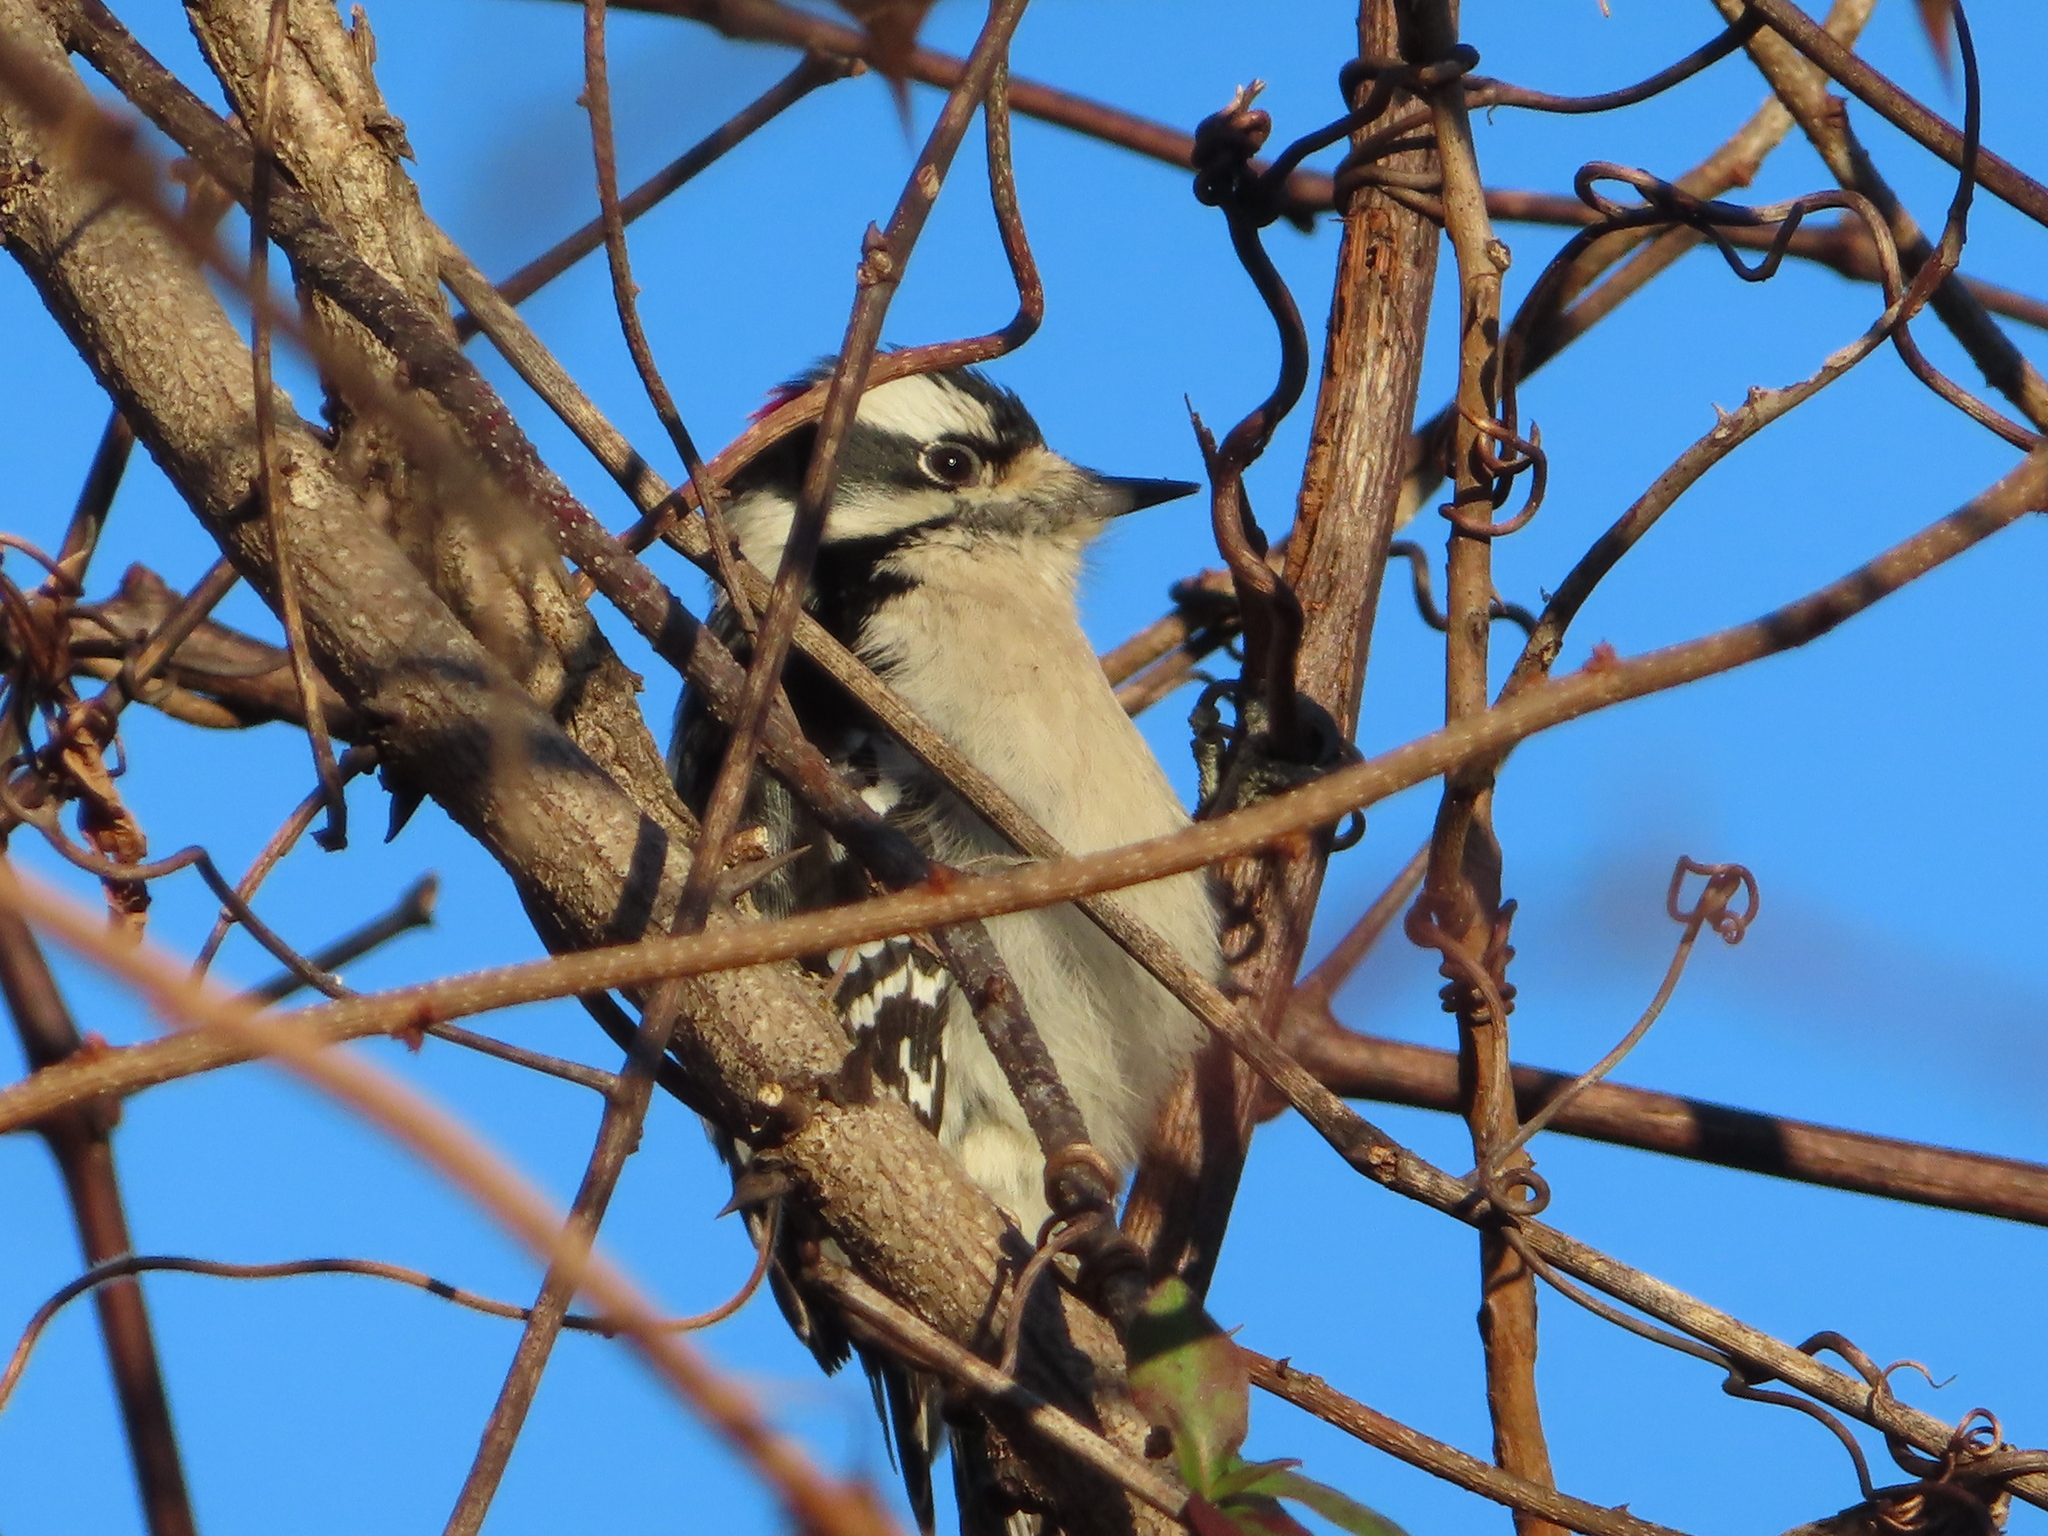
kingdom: Animalia
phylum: Chordata
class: Aves
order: Piciformes
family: Picidae
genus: Dryobates
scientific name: Dryobates pubescens
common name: Downy woodpecker
